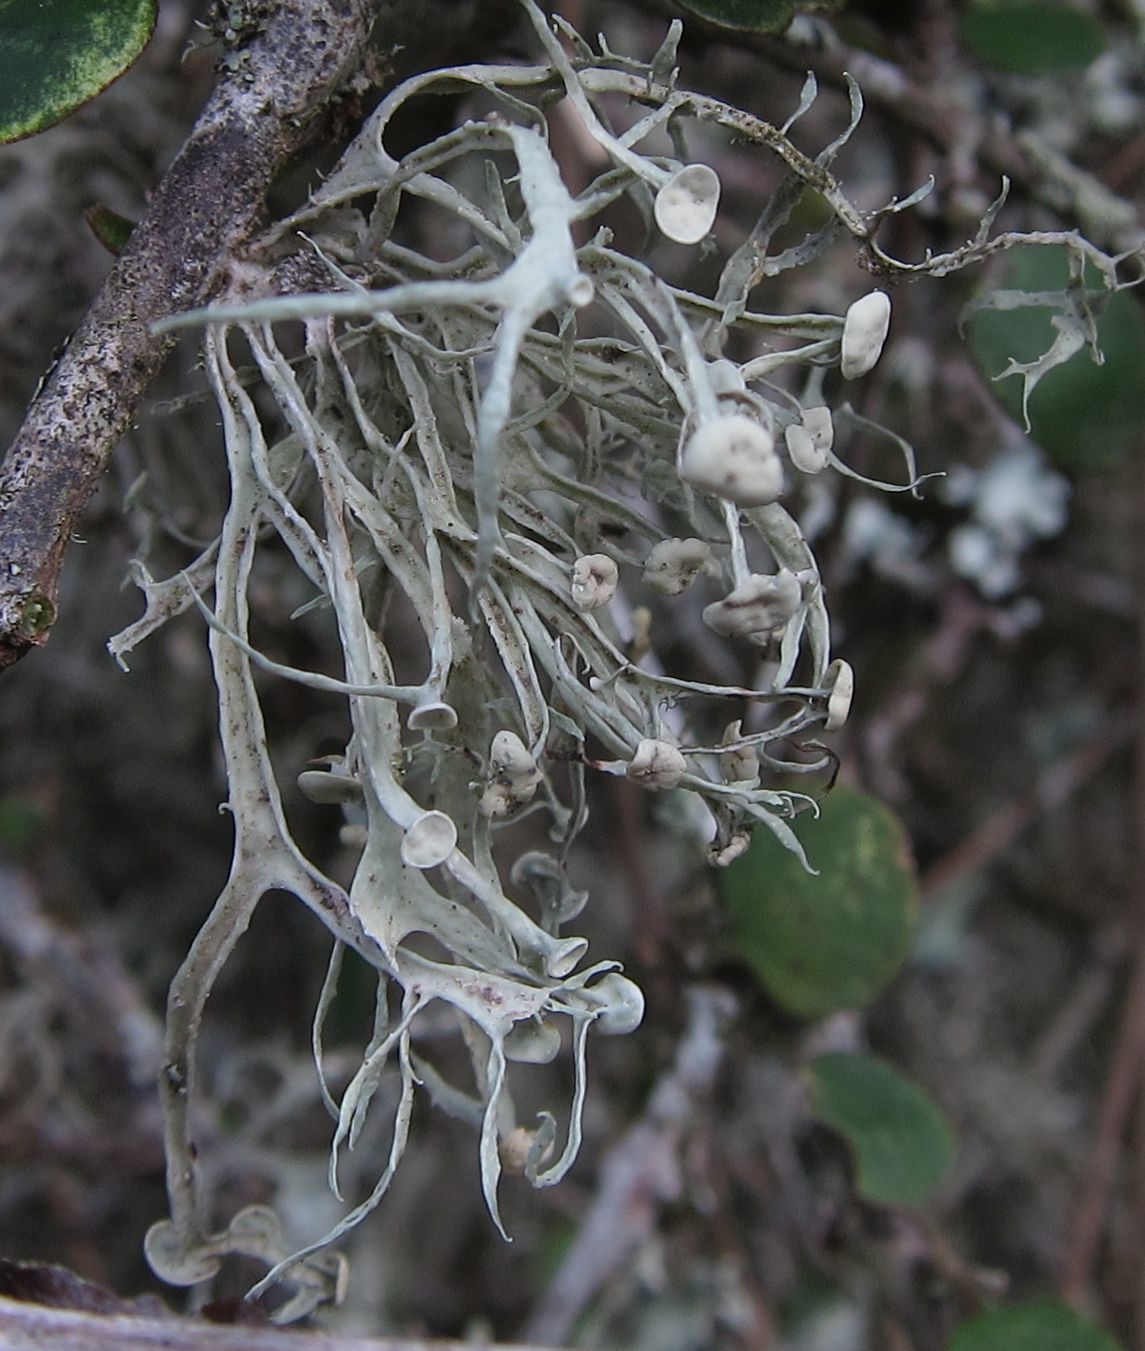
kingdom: Fungi
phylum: Ascomycota
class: Lecanoromycetes
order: Lecanorales
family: Ramalinaceae
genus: Ramalina
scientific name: Ramalina glaucescens
